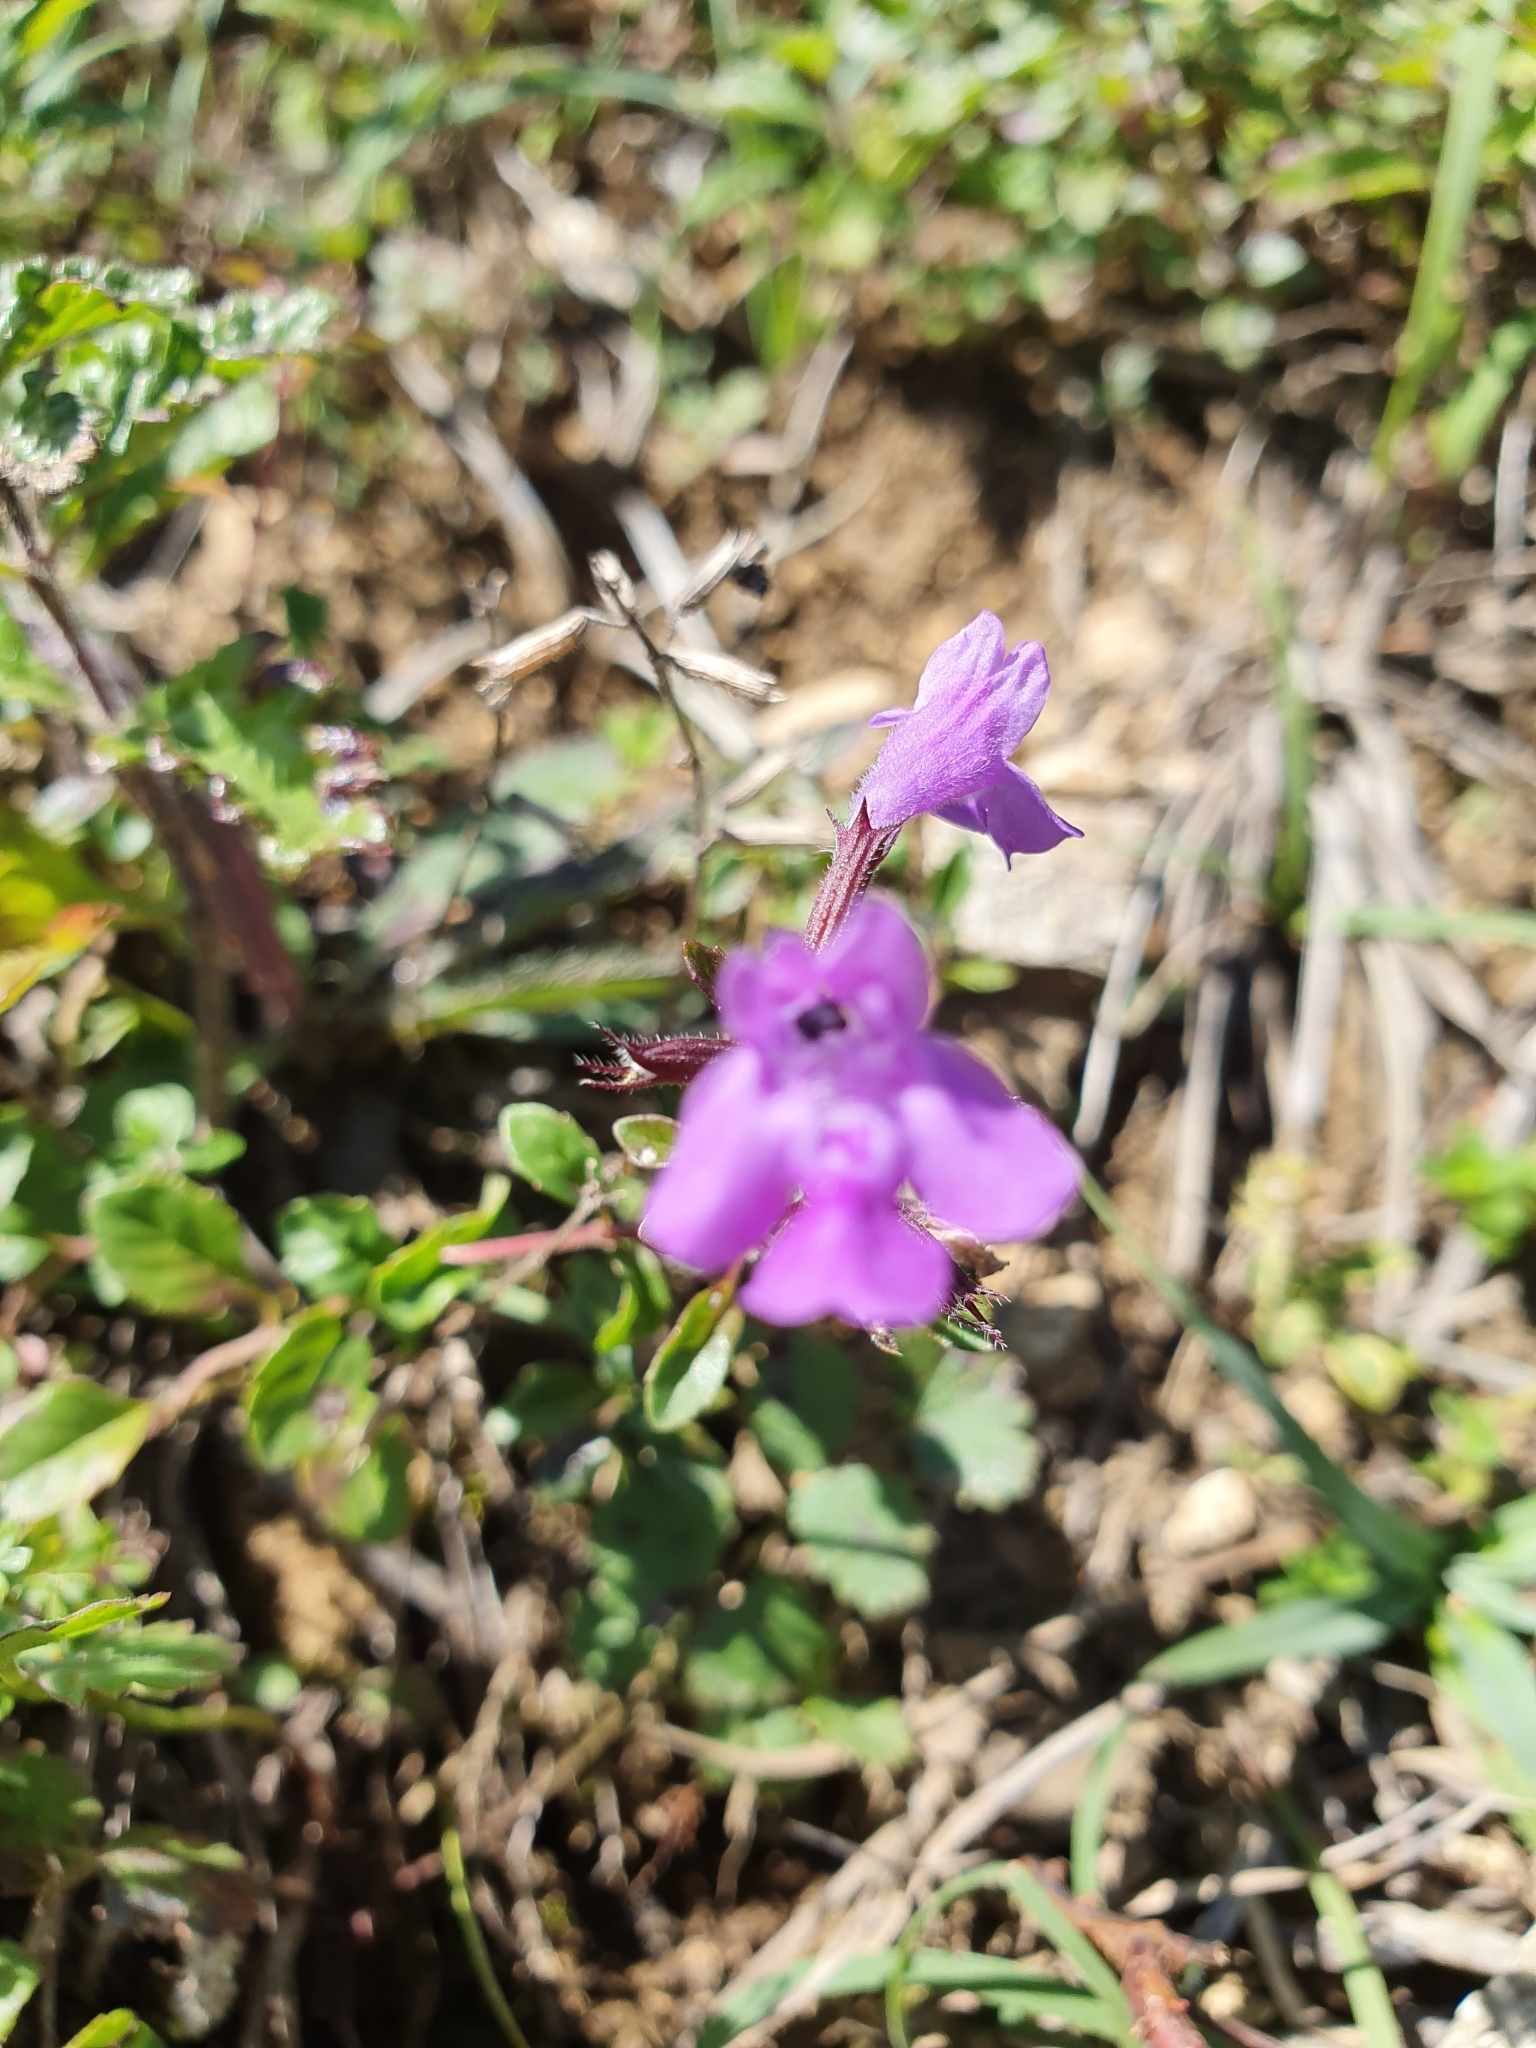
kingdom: Plantae
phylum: Tracheophyta
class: Magnoliopsida
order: Lamiales
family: Lamiaceae
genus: Clinopodium
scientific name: Clinopodium alpinum
